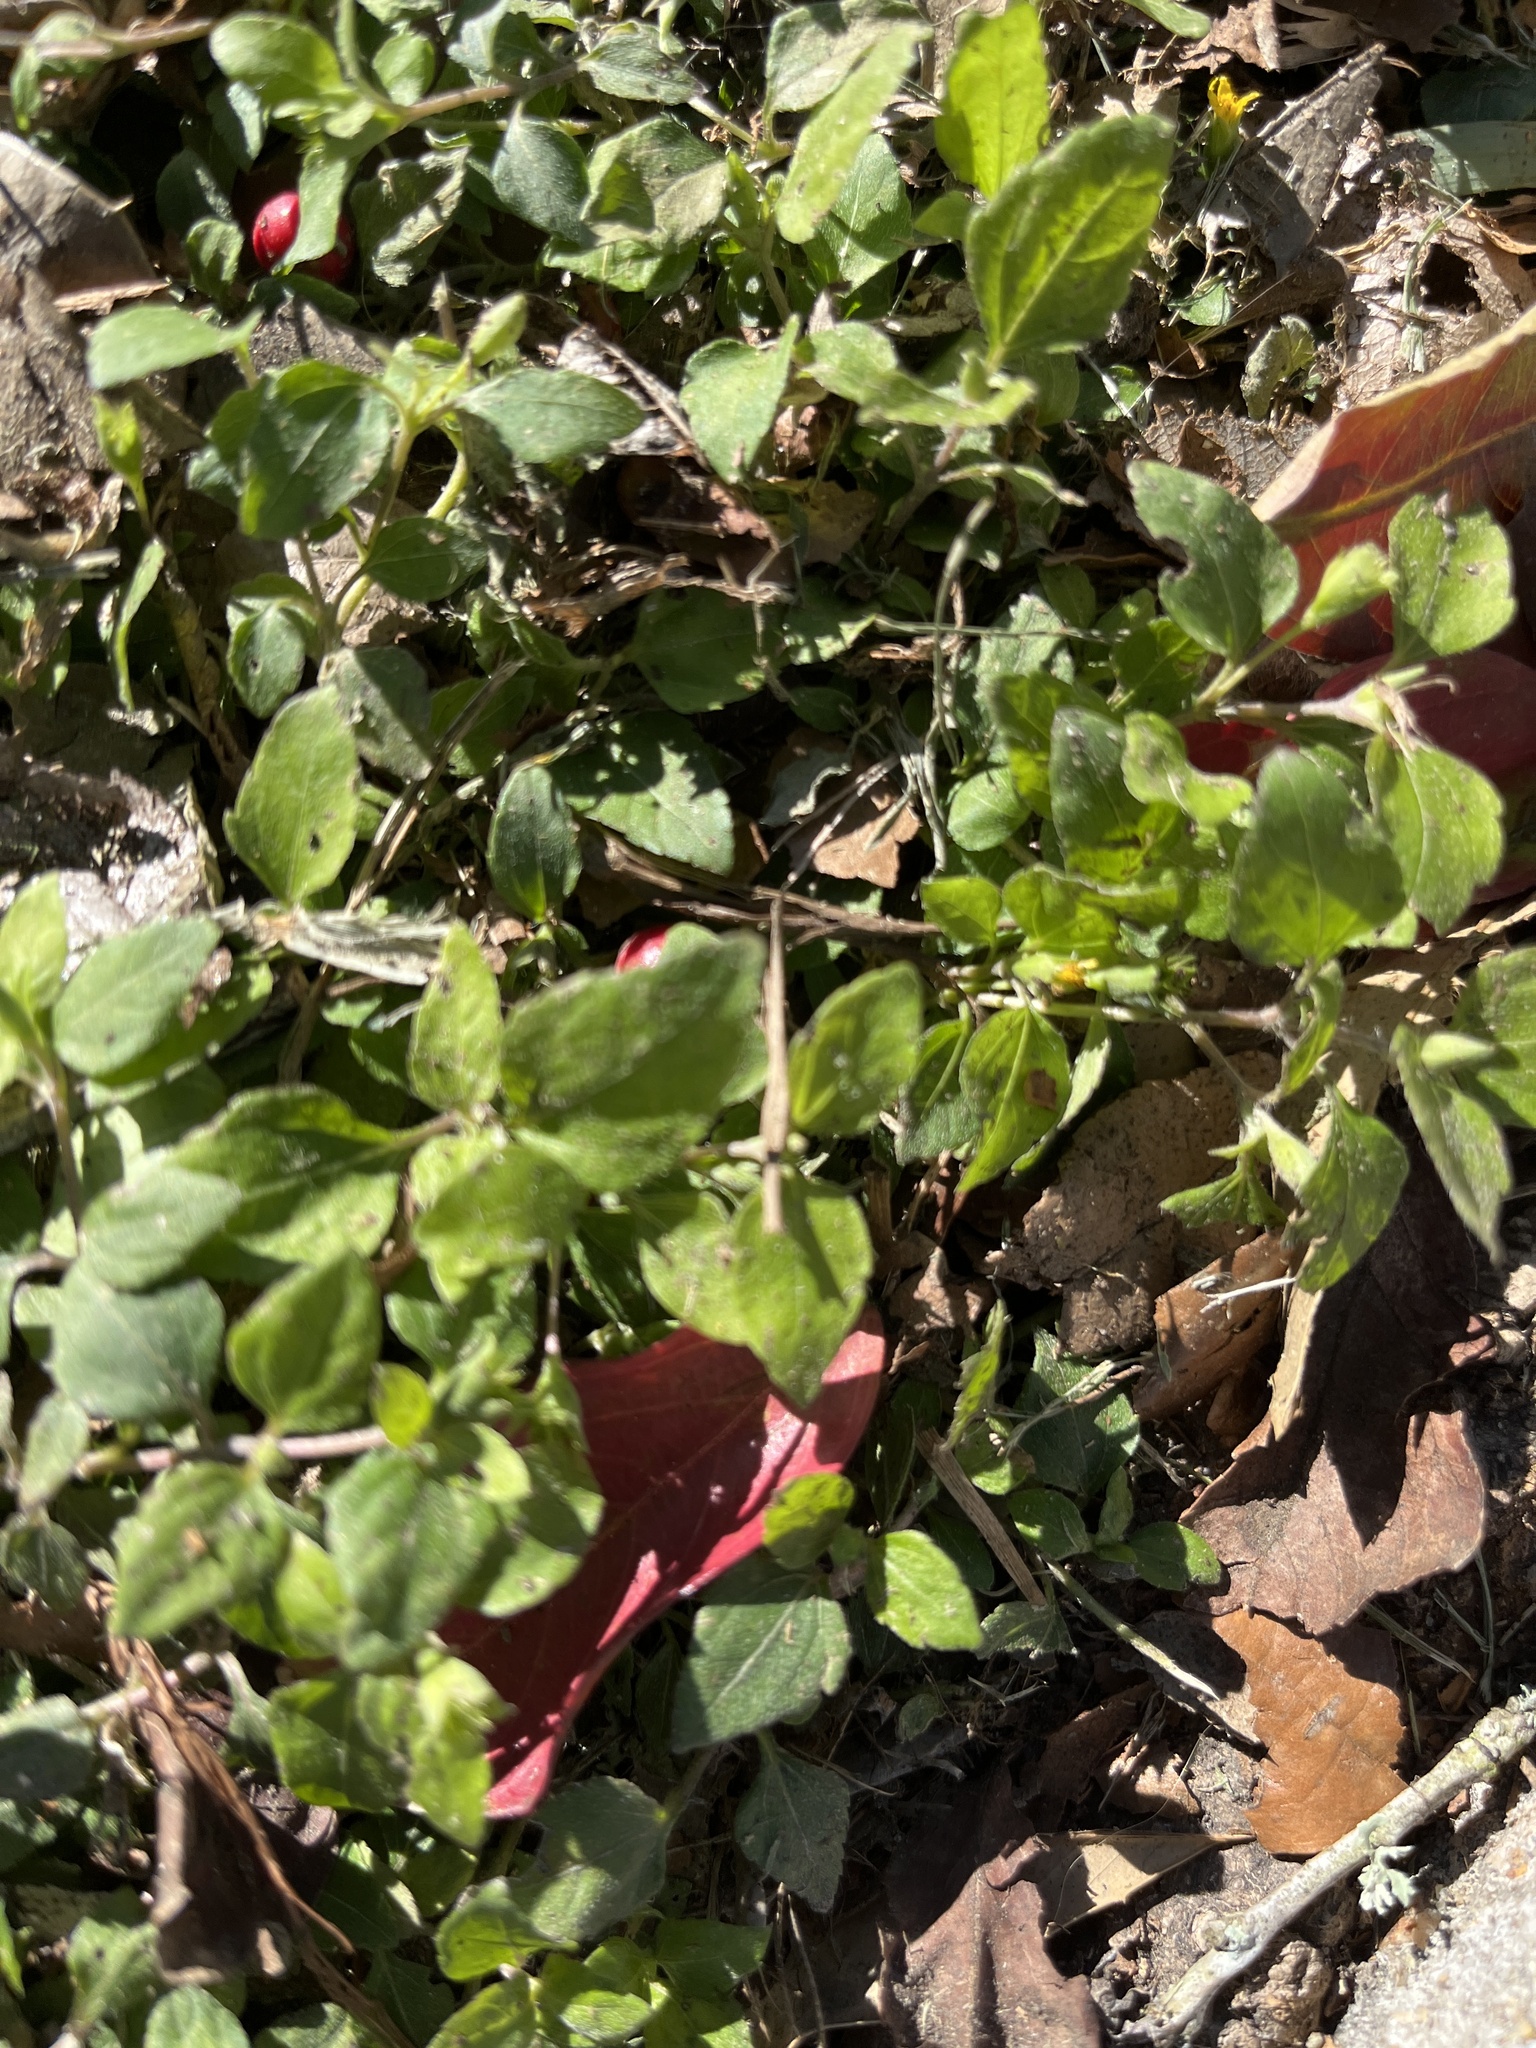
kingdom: Plantae
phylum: Tracheophyta
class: Magnoliopsida
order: Asterales
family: Asteraceae
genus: Calyptocarpus
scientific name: Calyptocarpus vialis
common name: Straggler daisy
